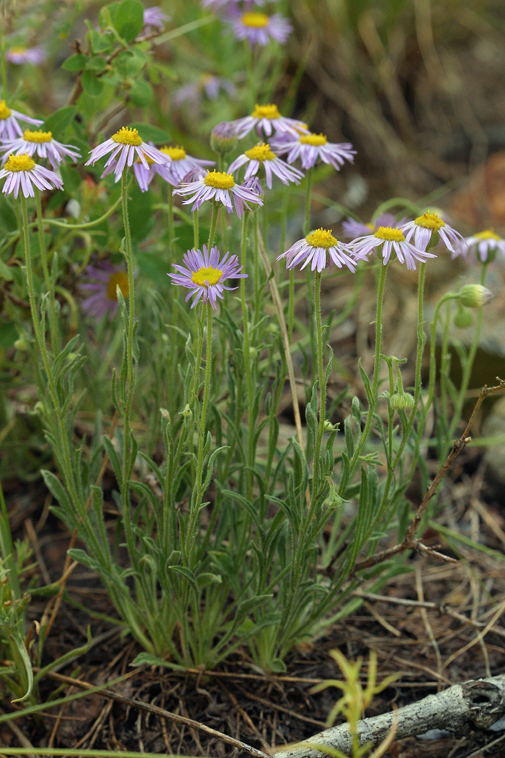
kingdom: Plantae
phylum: Tracheophyta
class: Magnoliopsida
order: Asterales
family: Asteraceae
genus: Erigeron
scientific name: Erigeron clokeyi
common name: Clokey's fleabane
